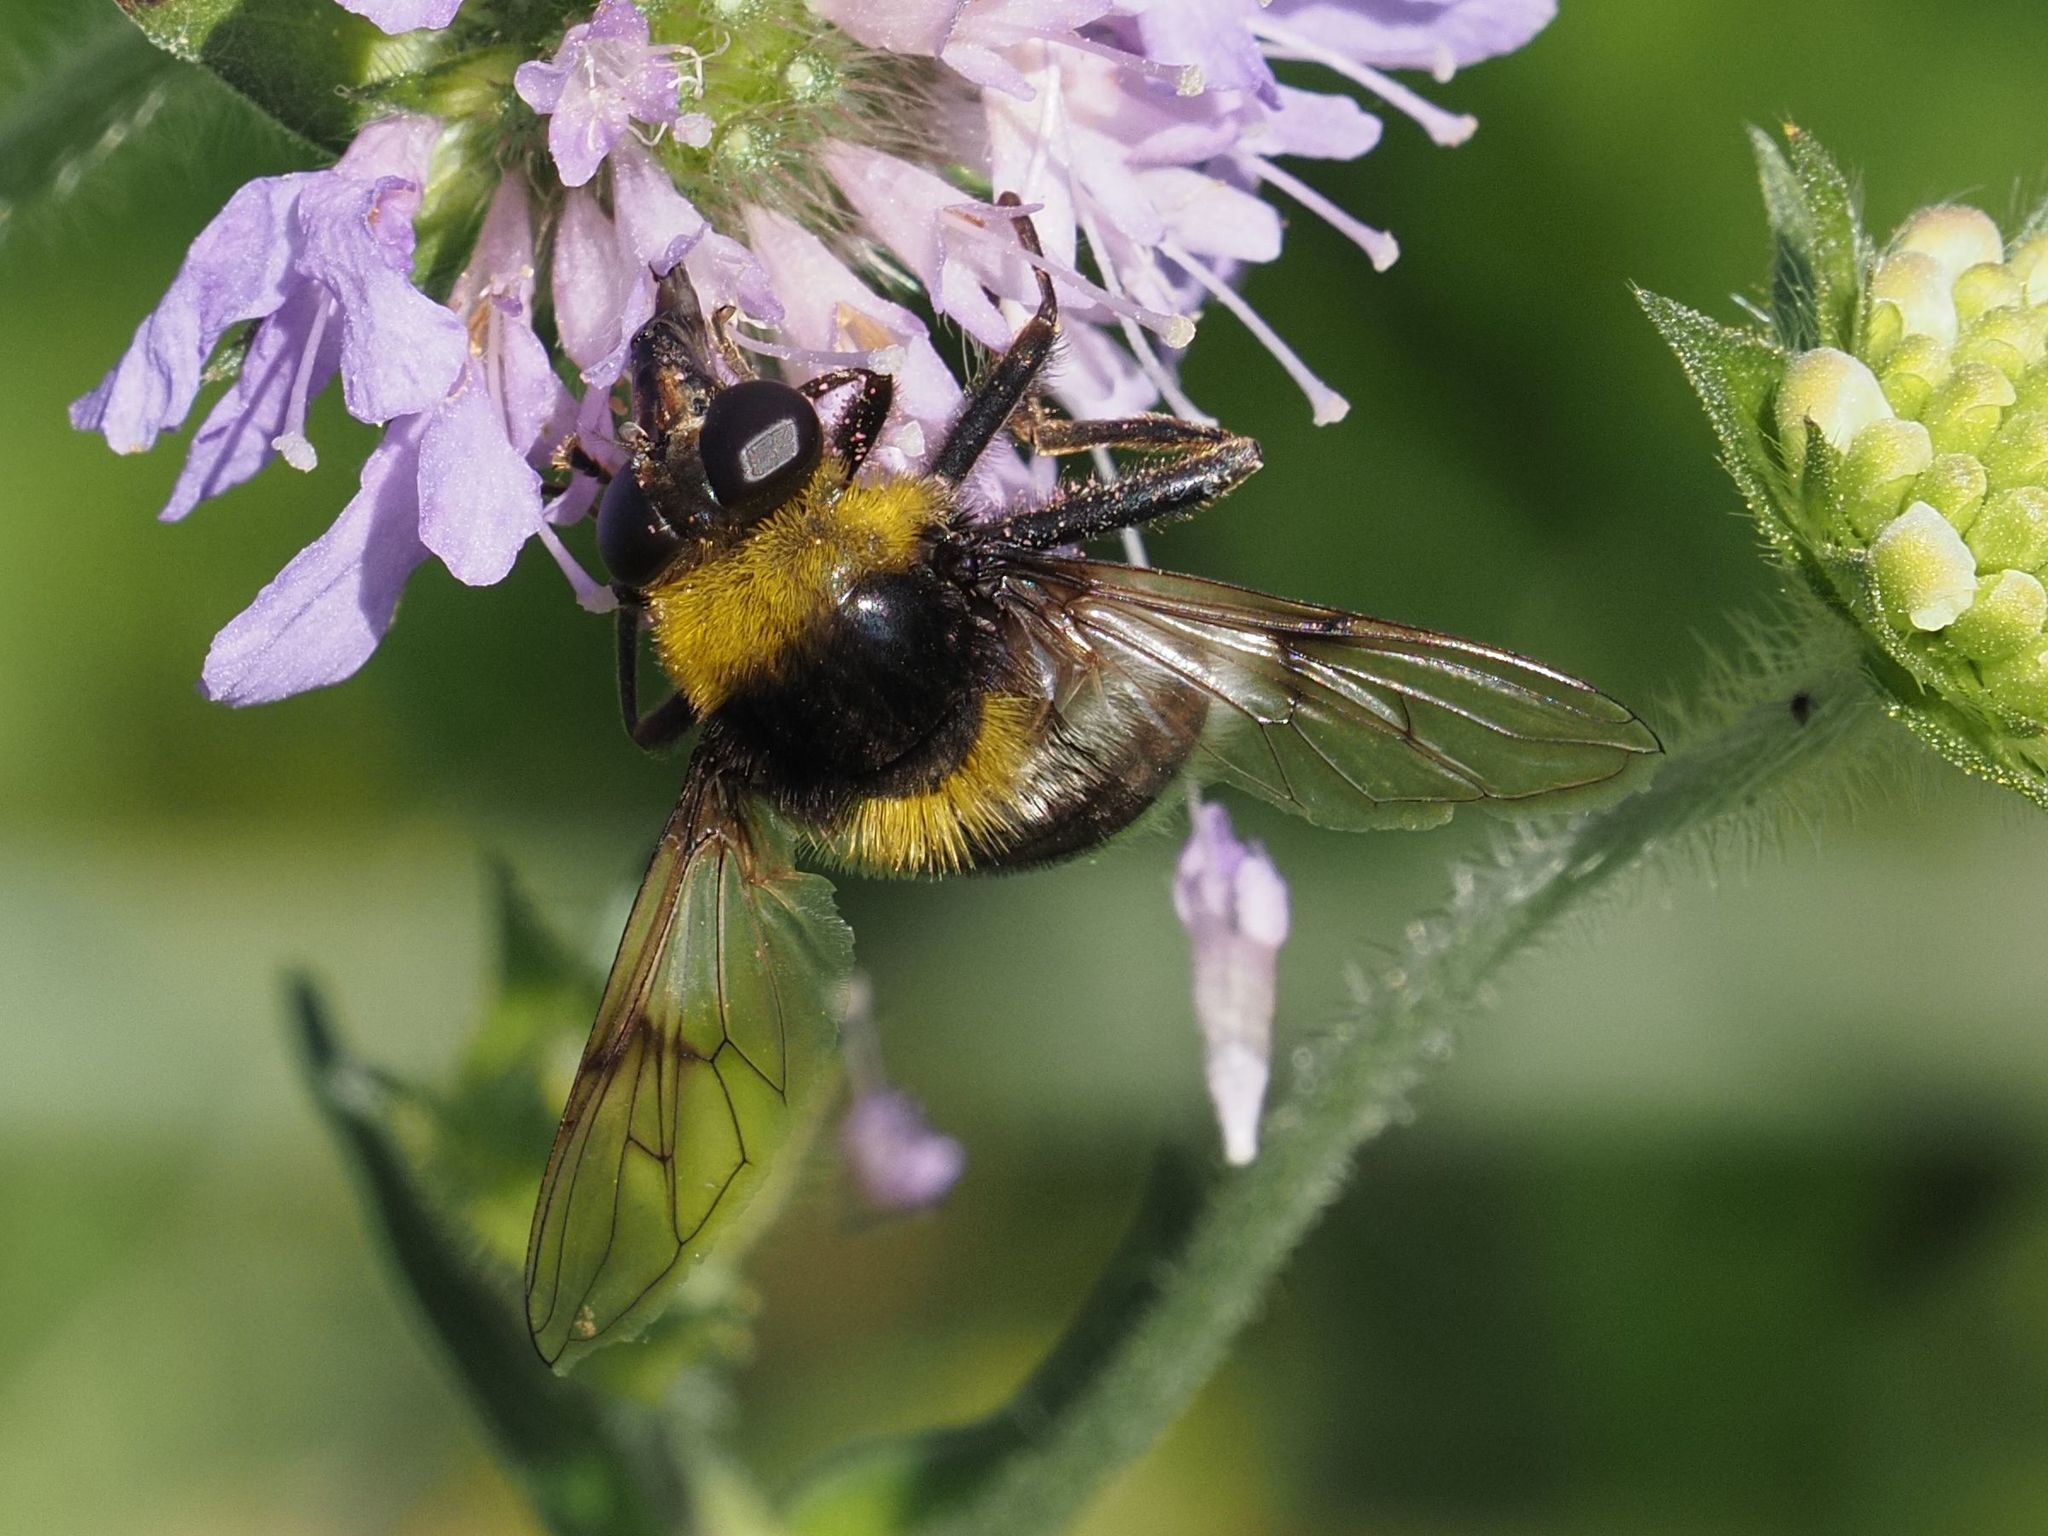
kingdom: Animalia
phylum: Arthropoda
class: Insecta
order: Diptera
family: Syrphidae
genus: Sericomyia
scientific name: Sericomyia bombiformis
